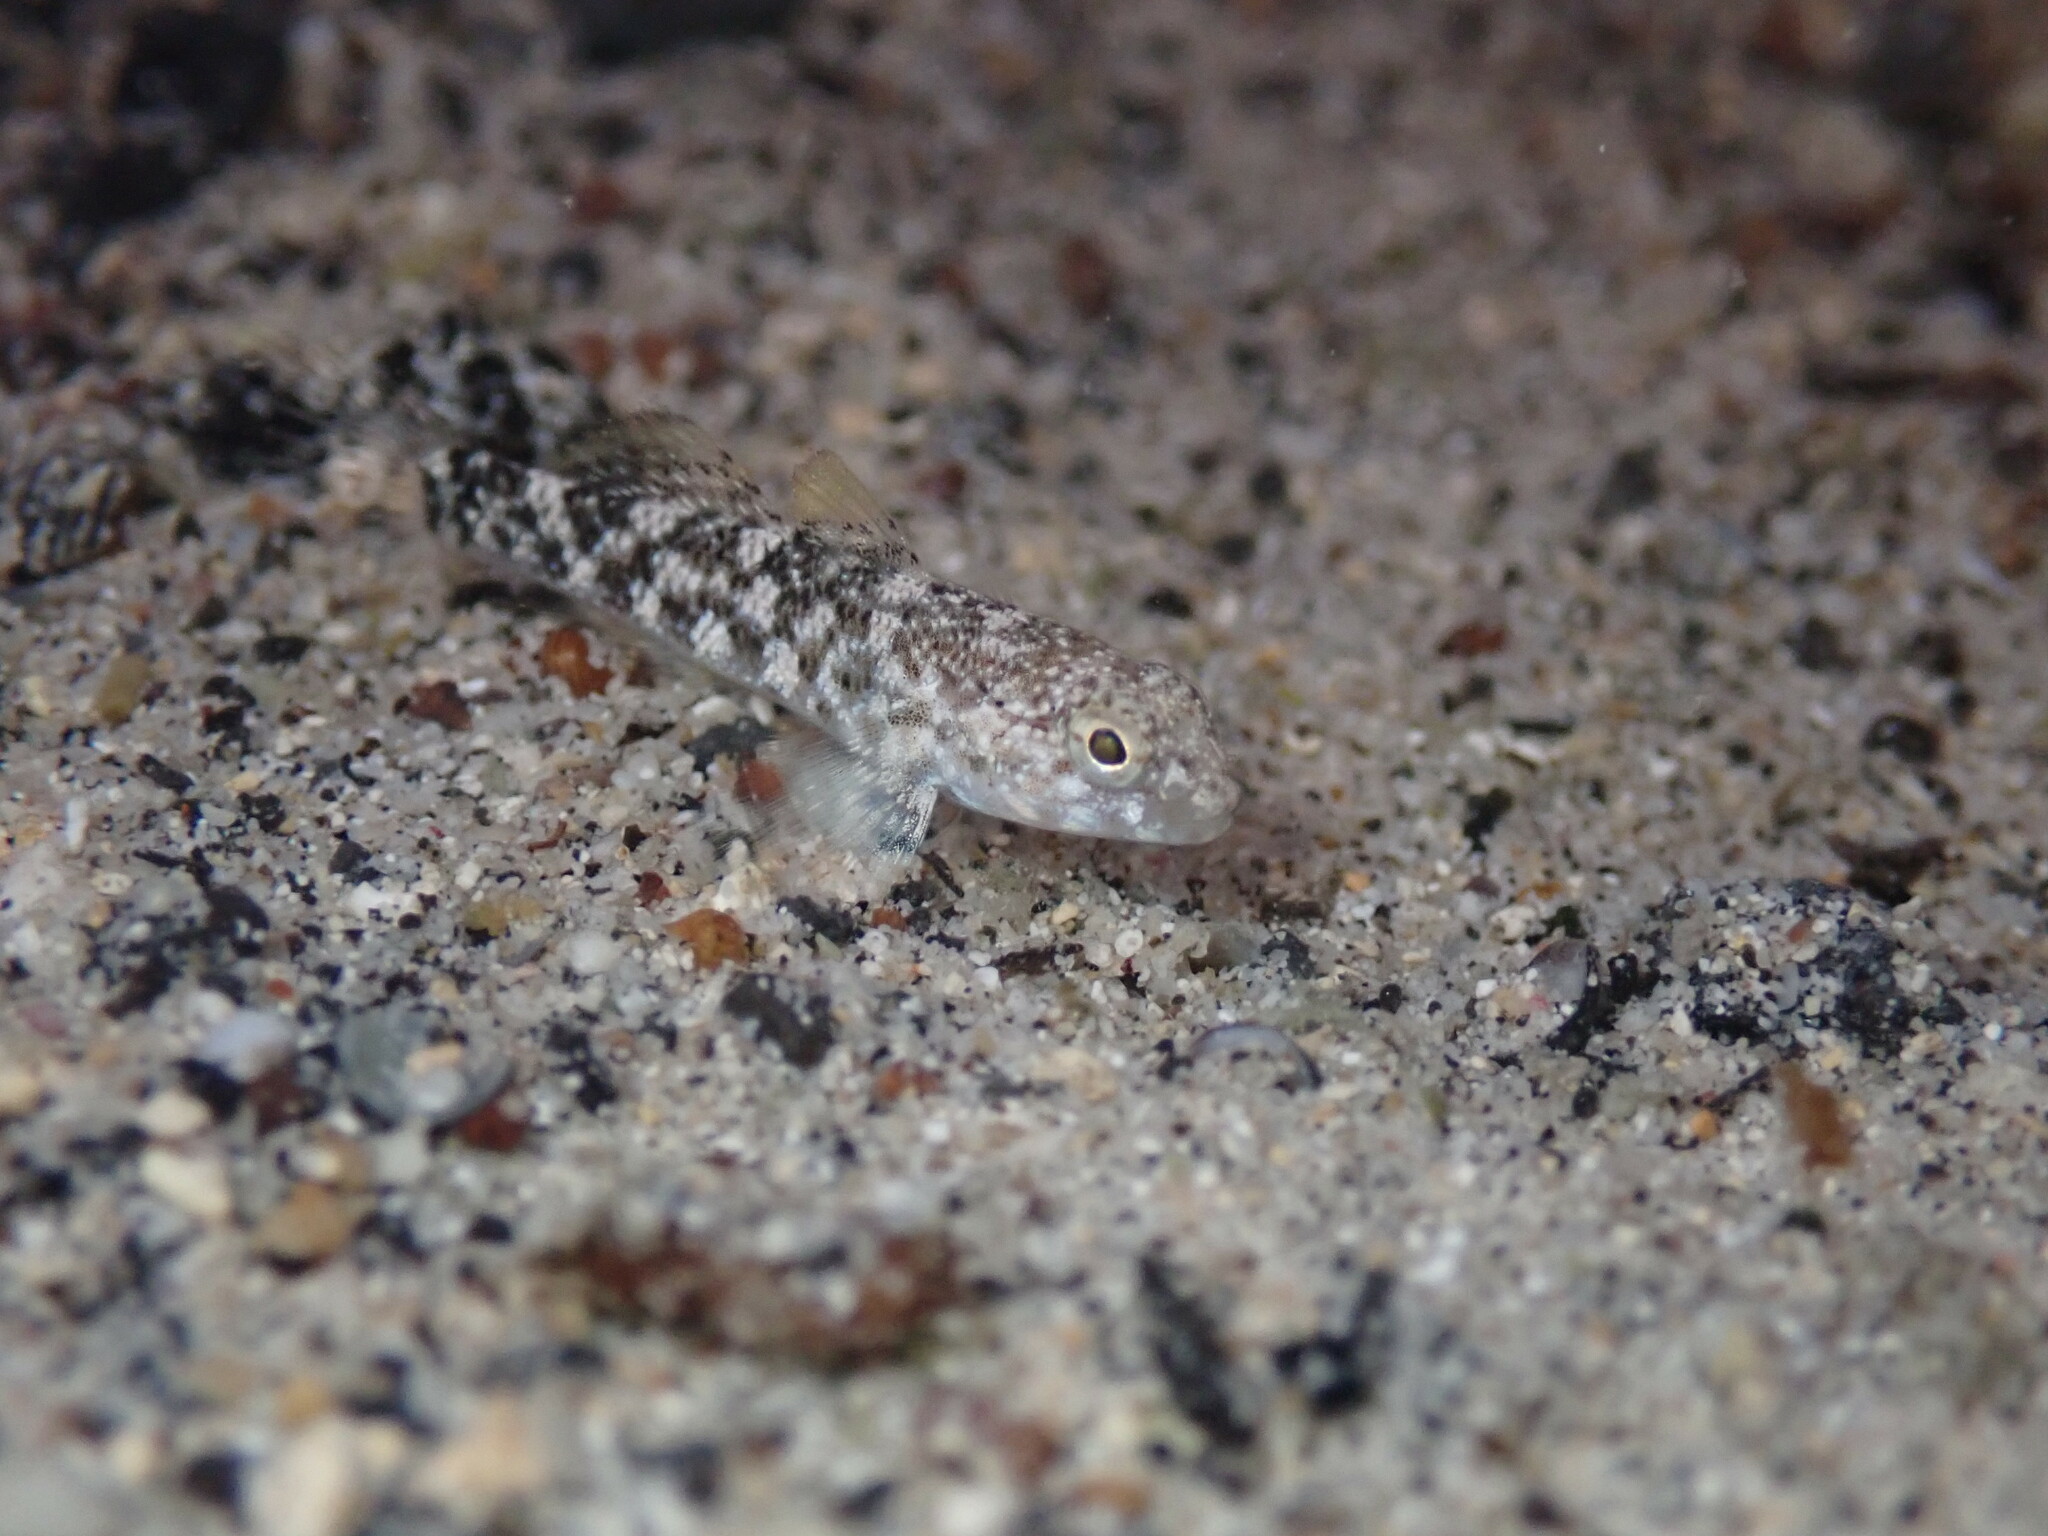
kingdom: Animalia
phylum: Chordata
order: Perciformes
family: Gobiidae
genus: Bathygobius
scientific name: Bathygobius coalitus
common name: Whitespotted goby
